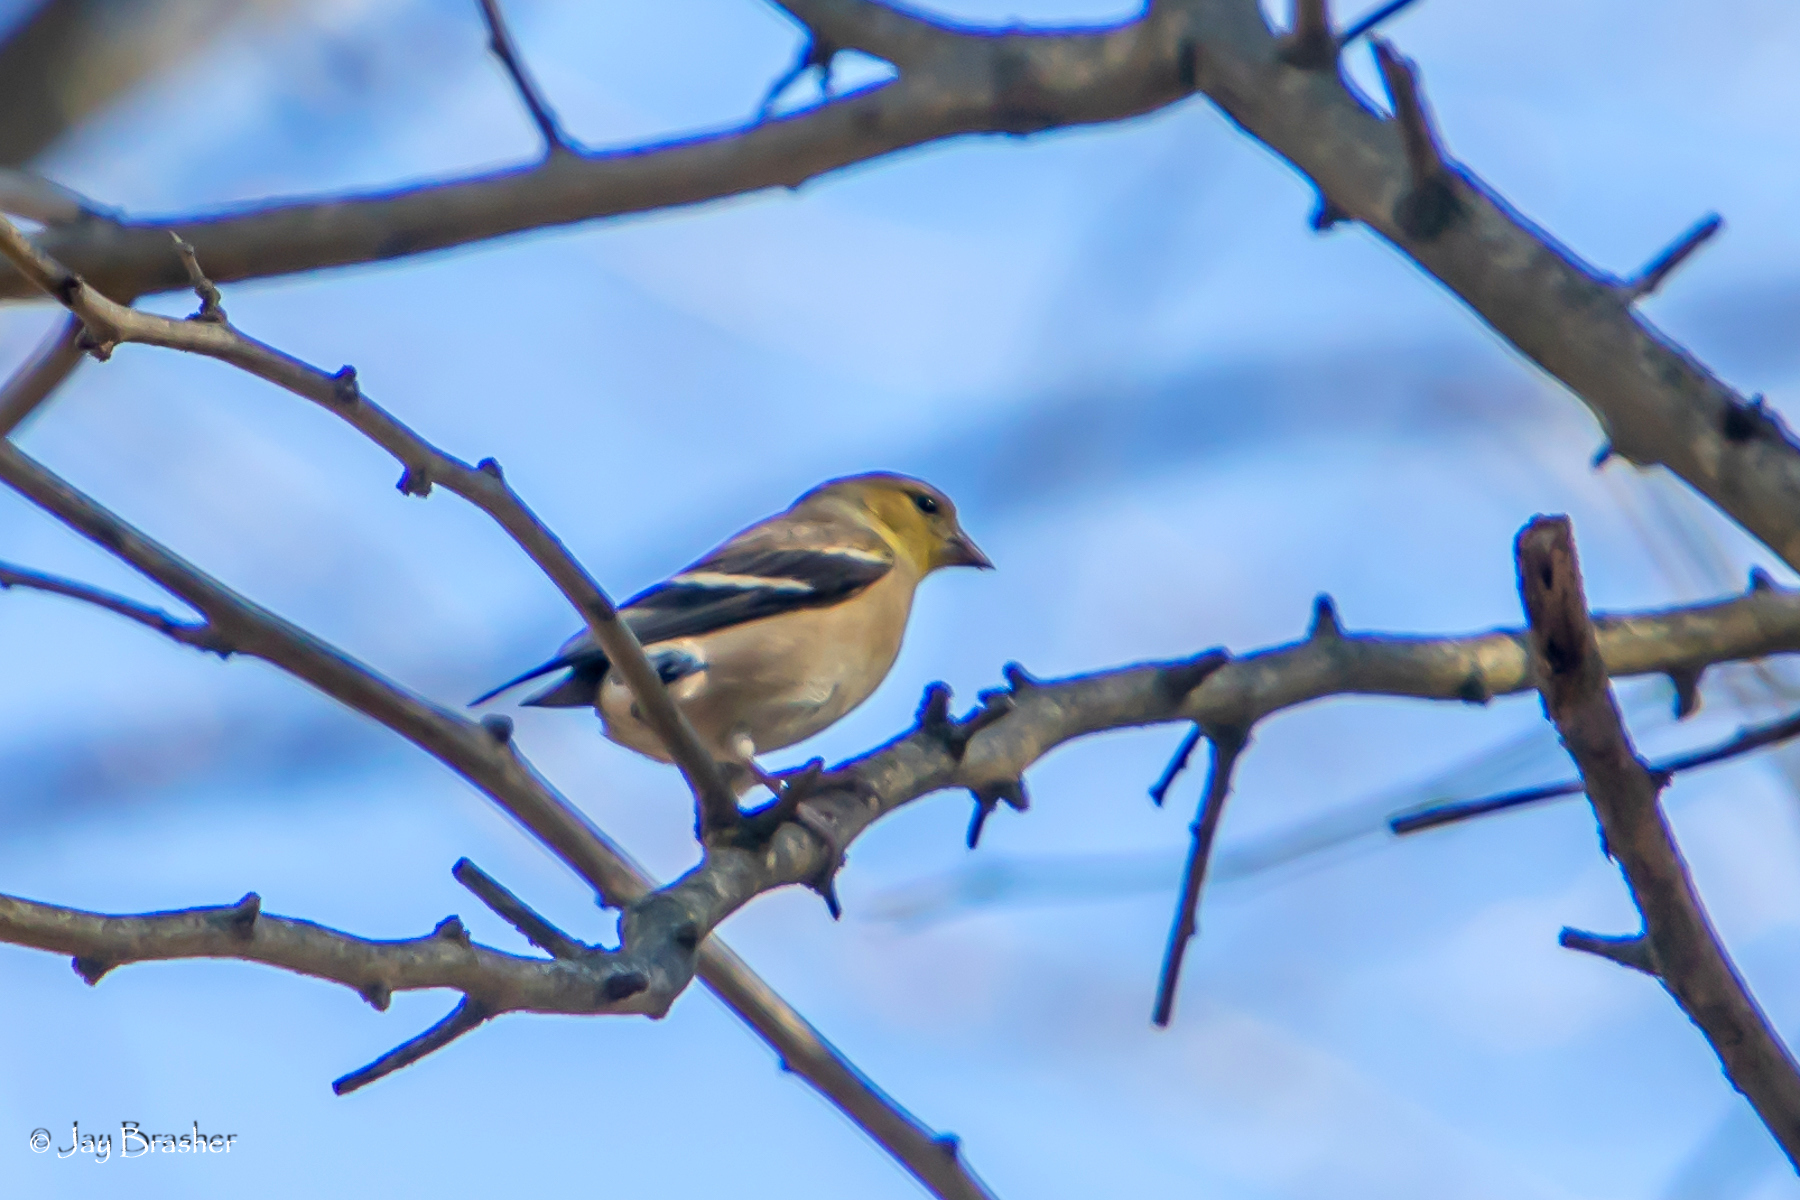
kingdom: Animalia
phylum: Chordata
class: Aves
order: Passeriformes
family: Fringillidae
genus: Spinus
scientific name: Spinus tristis
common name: American goldfinch
